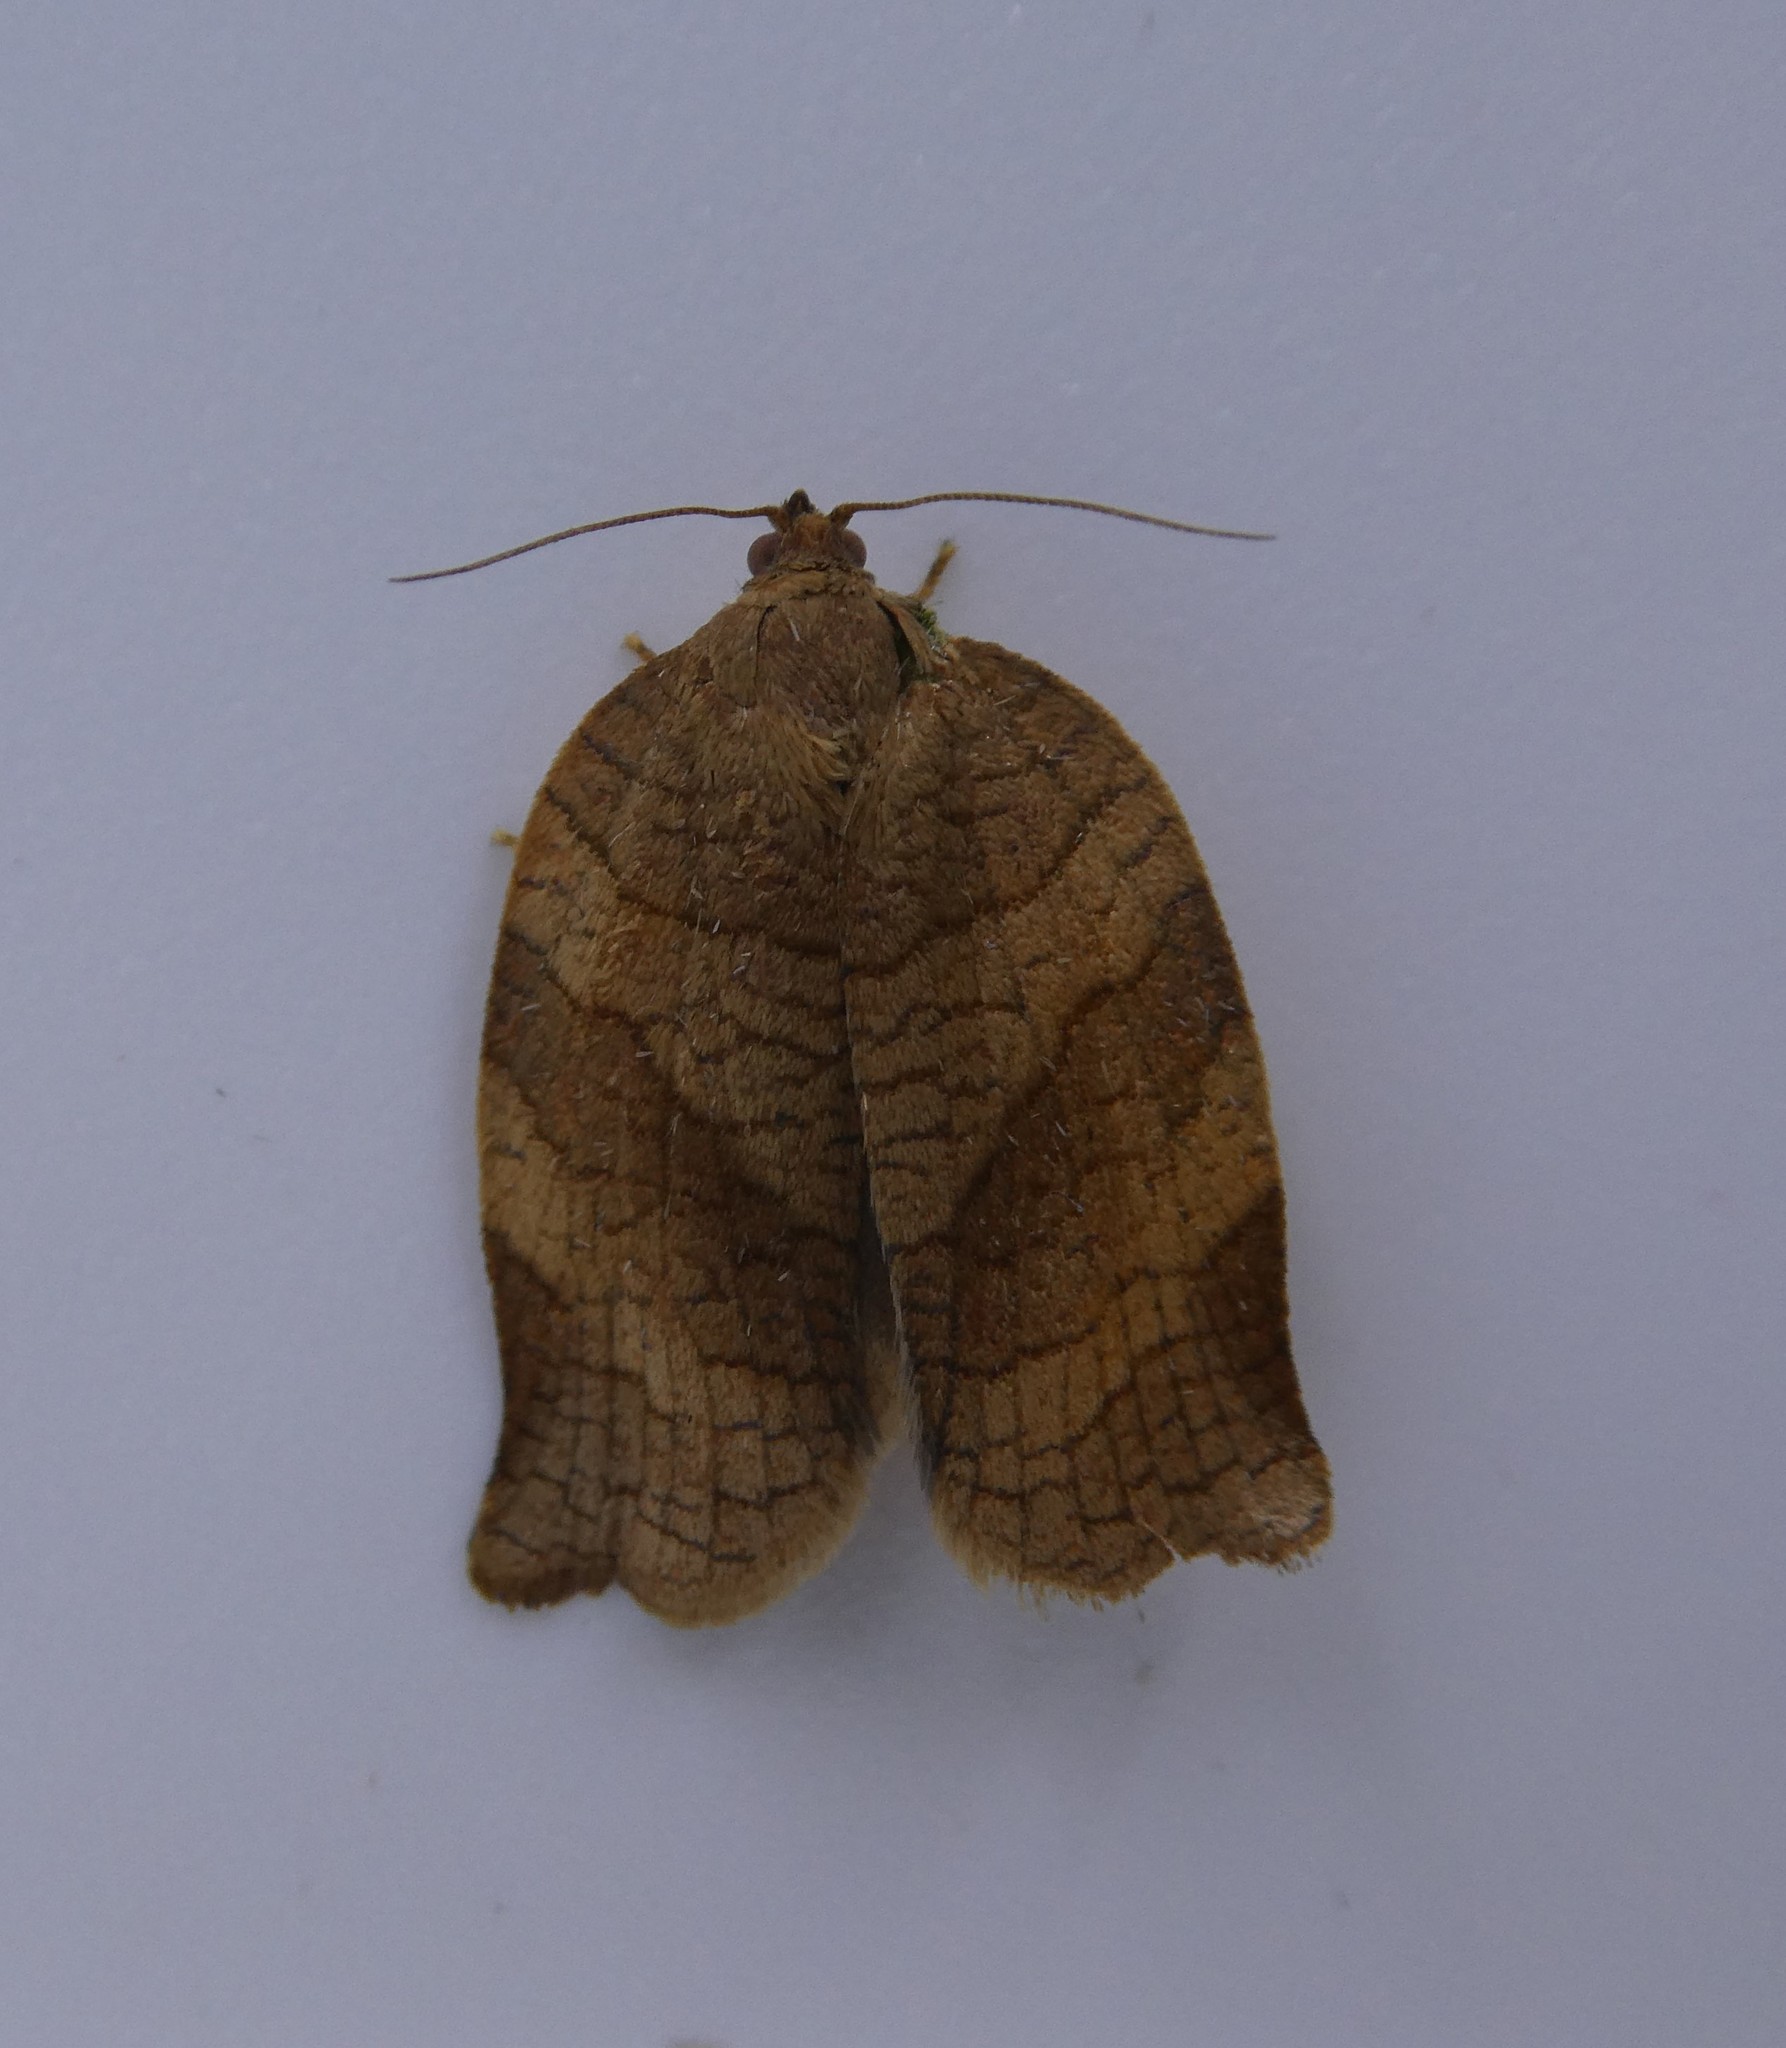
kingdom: Animalia
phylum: Arthropoda
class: Insecta
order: Lepidoptera
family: Tortricidae
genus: Choristoneura
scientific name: Choristoneura rosaceana
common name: Oblique-banded leafroller moth
